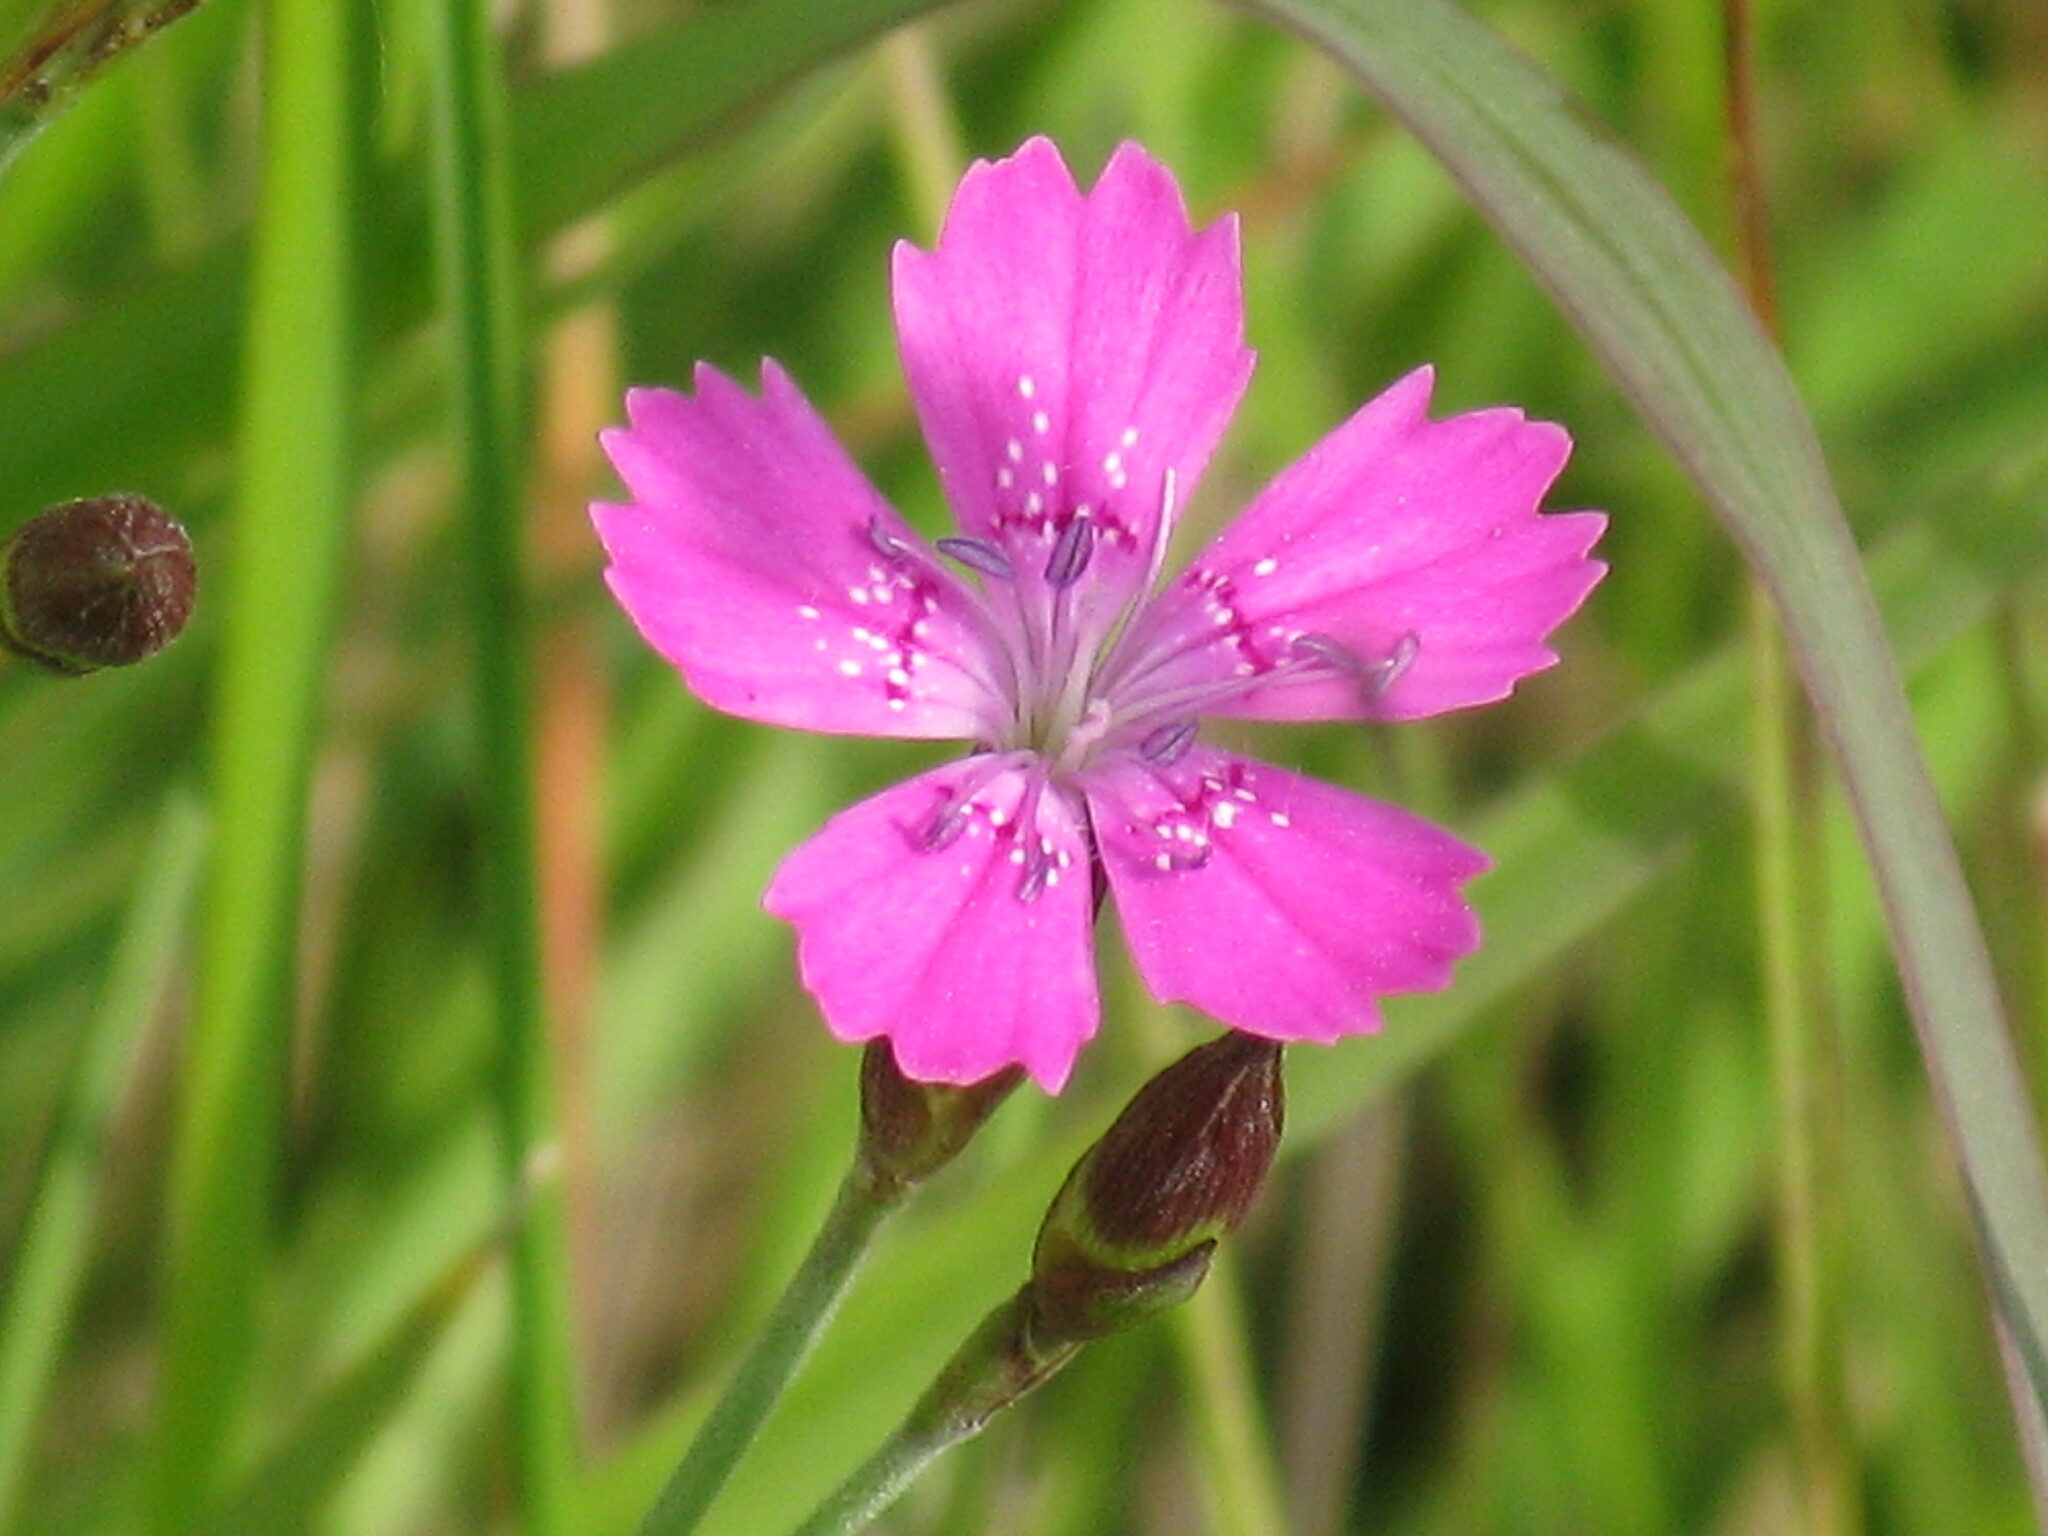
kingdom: Plantae
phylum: Tracheophyta
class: Magnoliopsida
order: Caryophyllales
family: Caryophyllaceae
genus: Dianthus
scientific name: Dianthus deltoides
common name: Maiden pink
